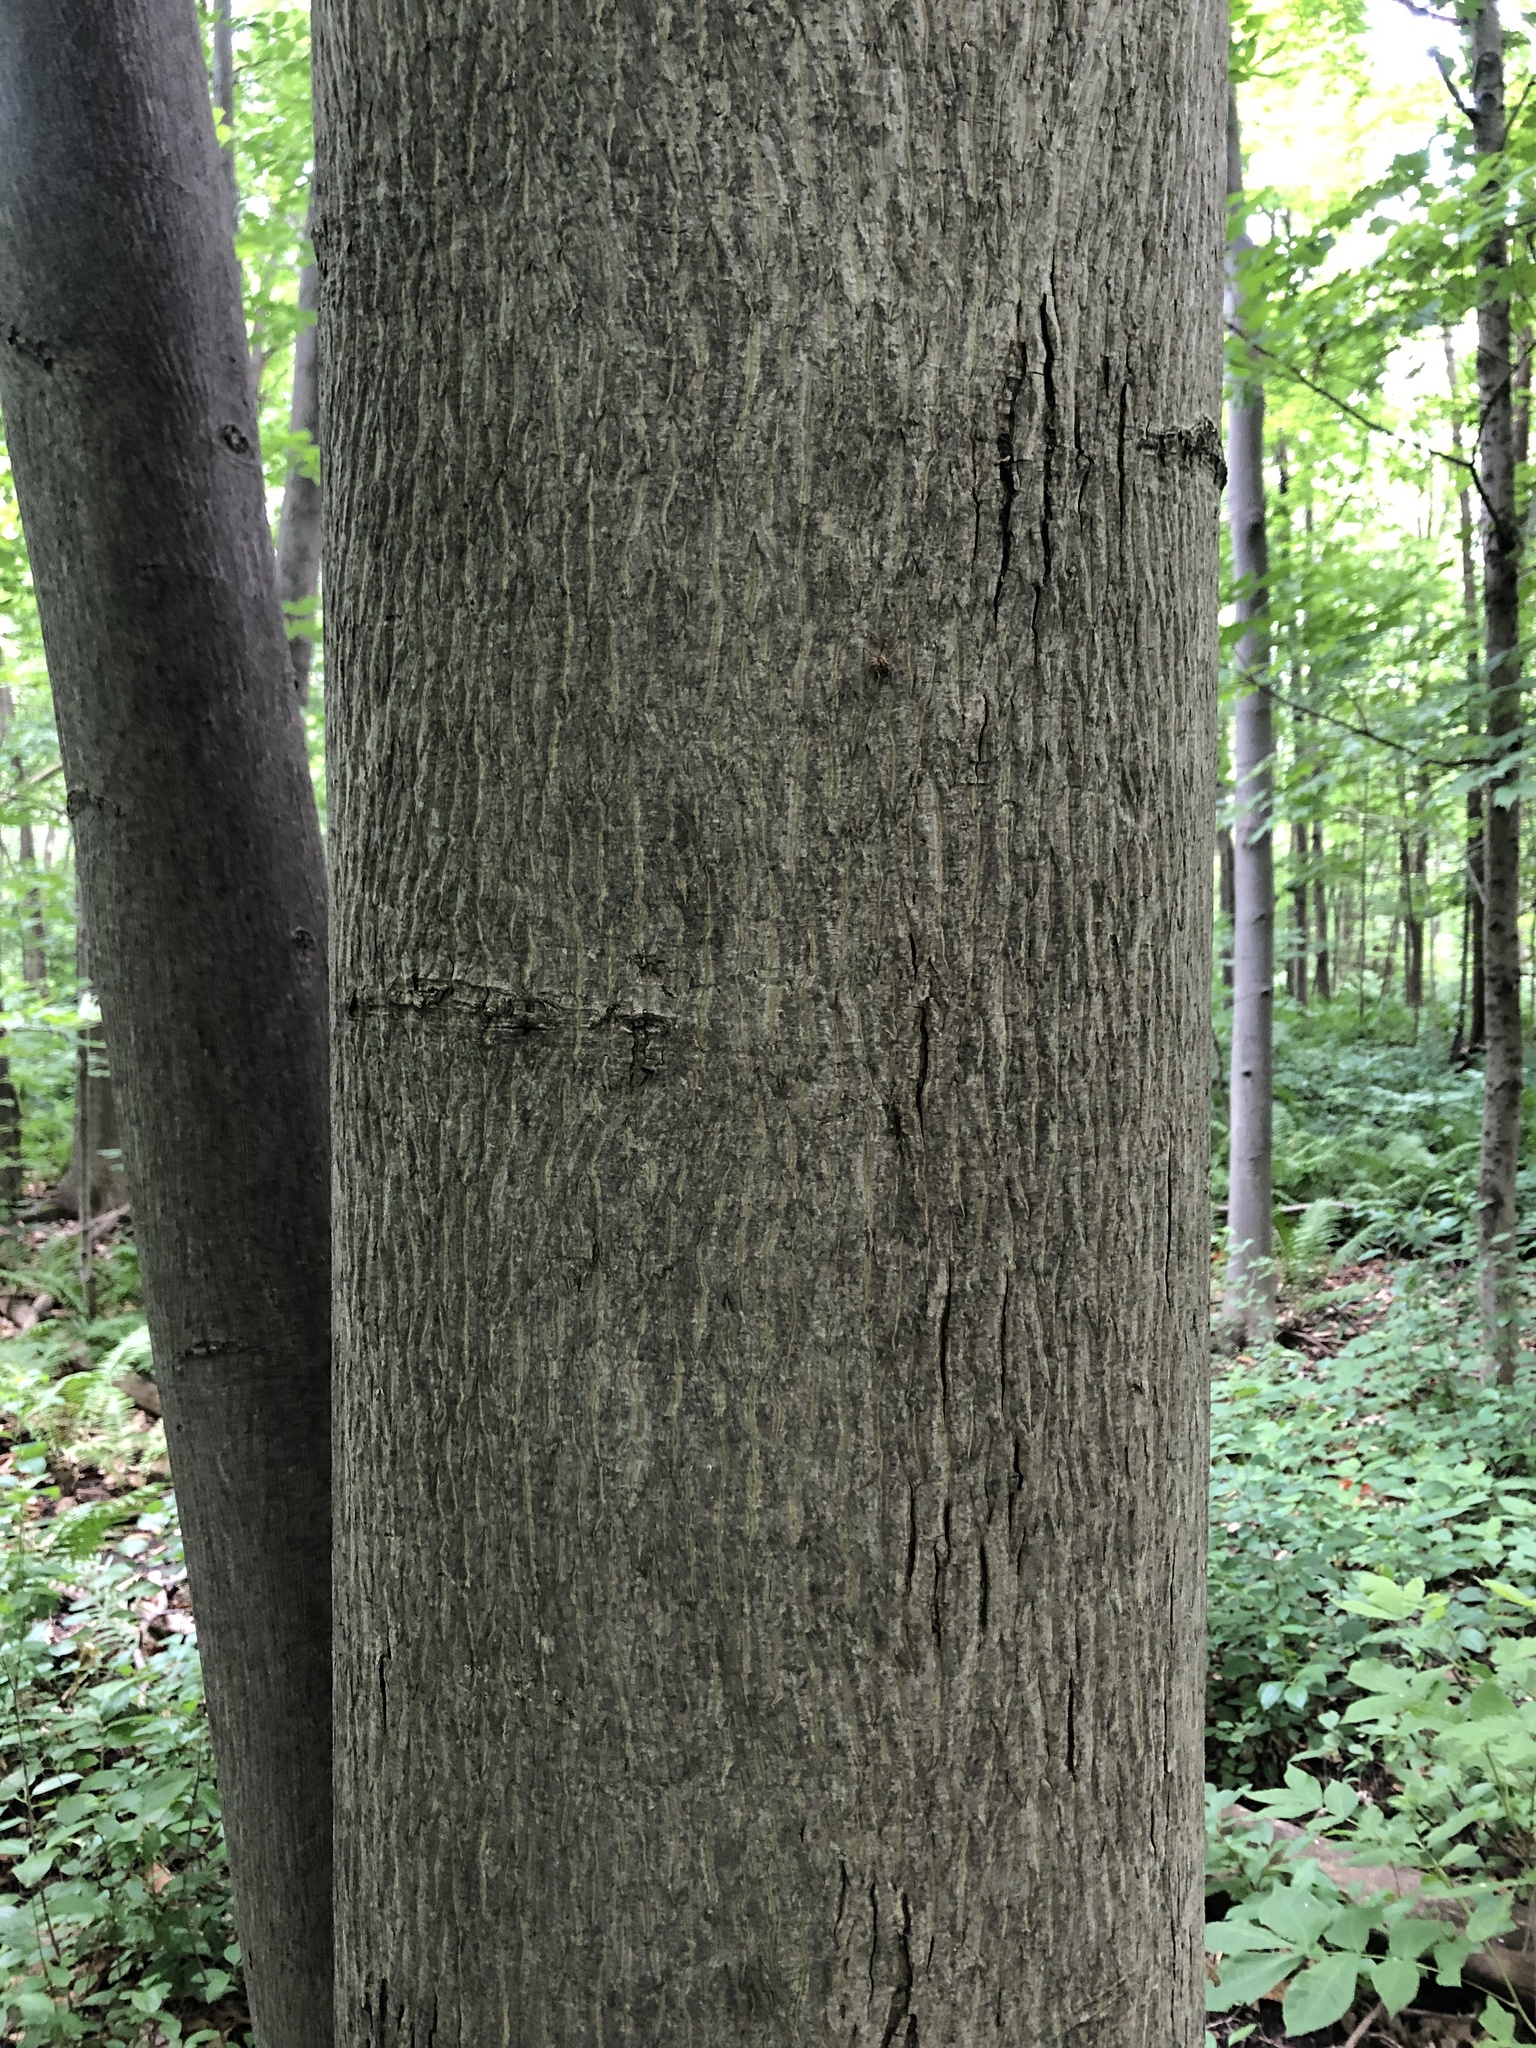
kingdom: Plantae
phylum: Tracheophyta
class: Magnoliopsida
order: Fagales
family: Juglandaceae
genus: Carya
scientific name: Carya cordiformis
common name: Bitternut hickory
